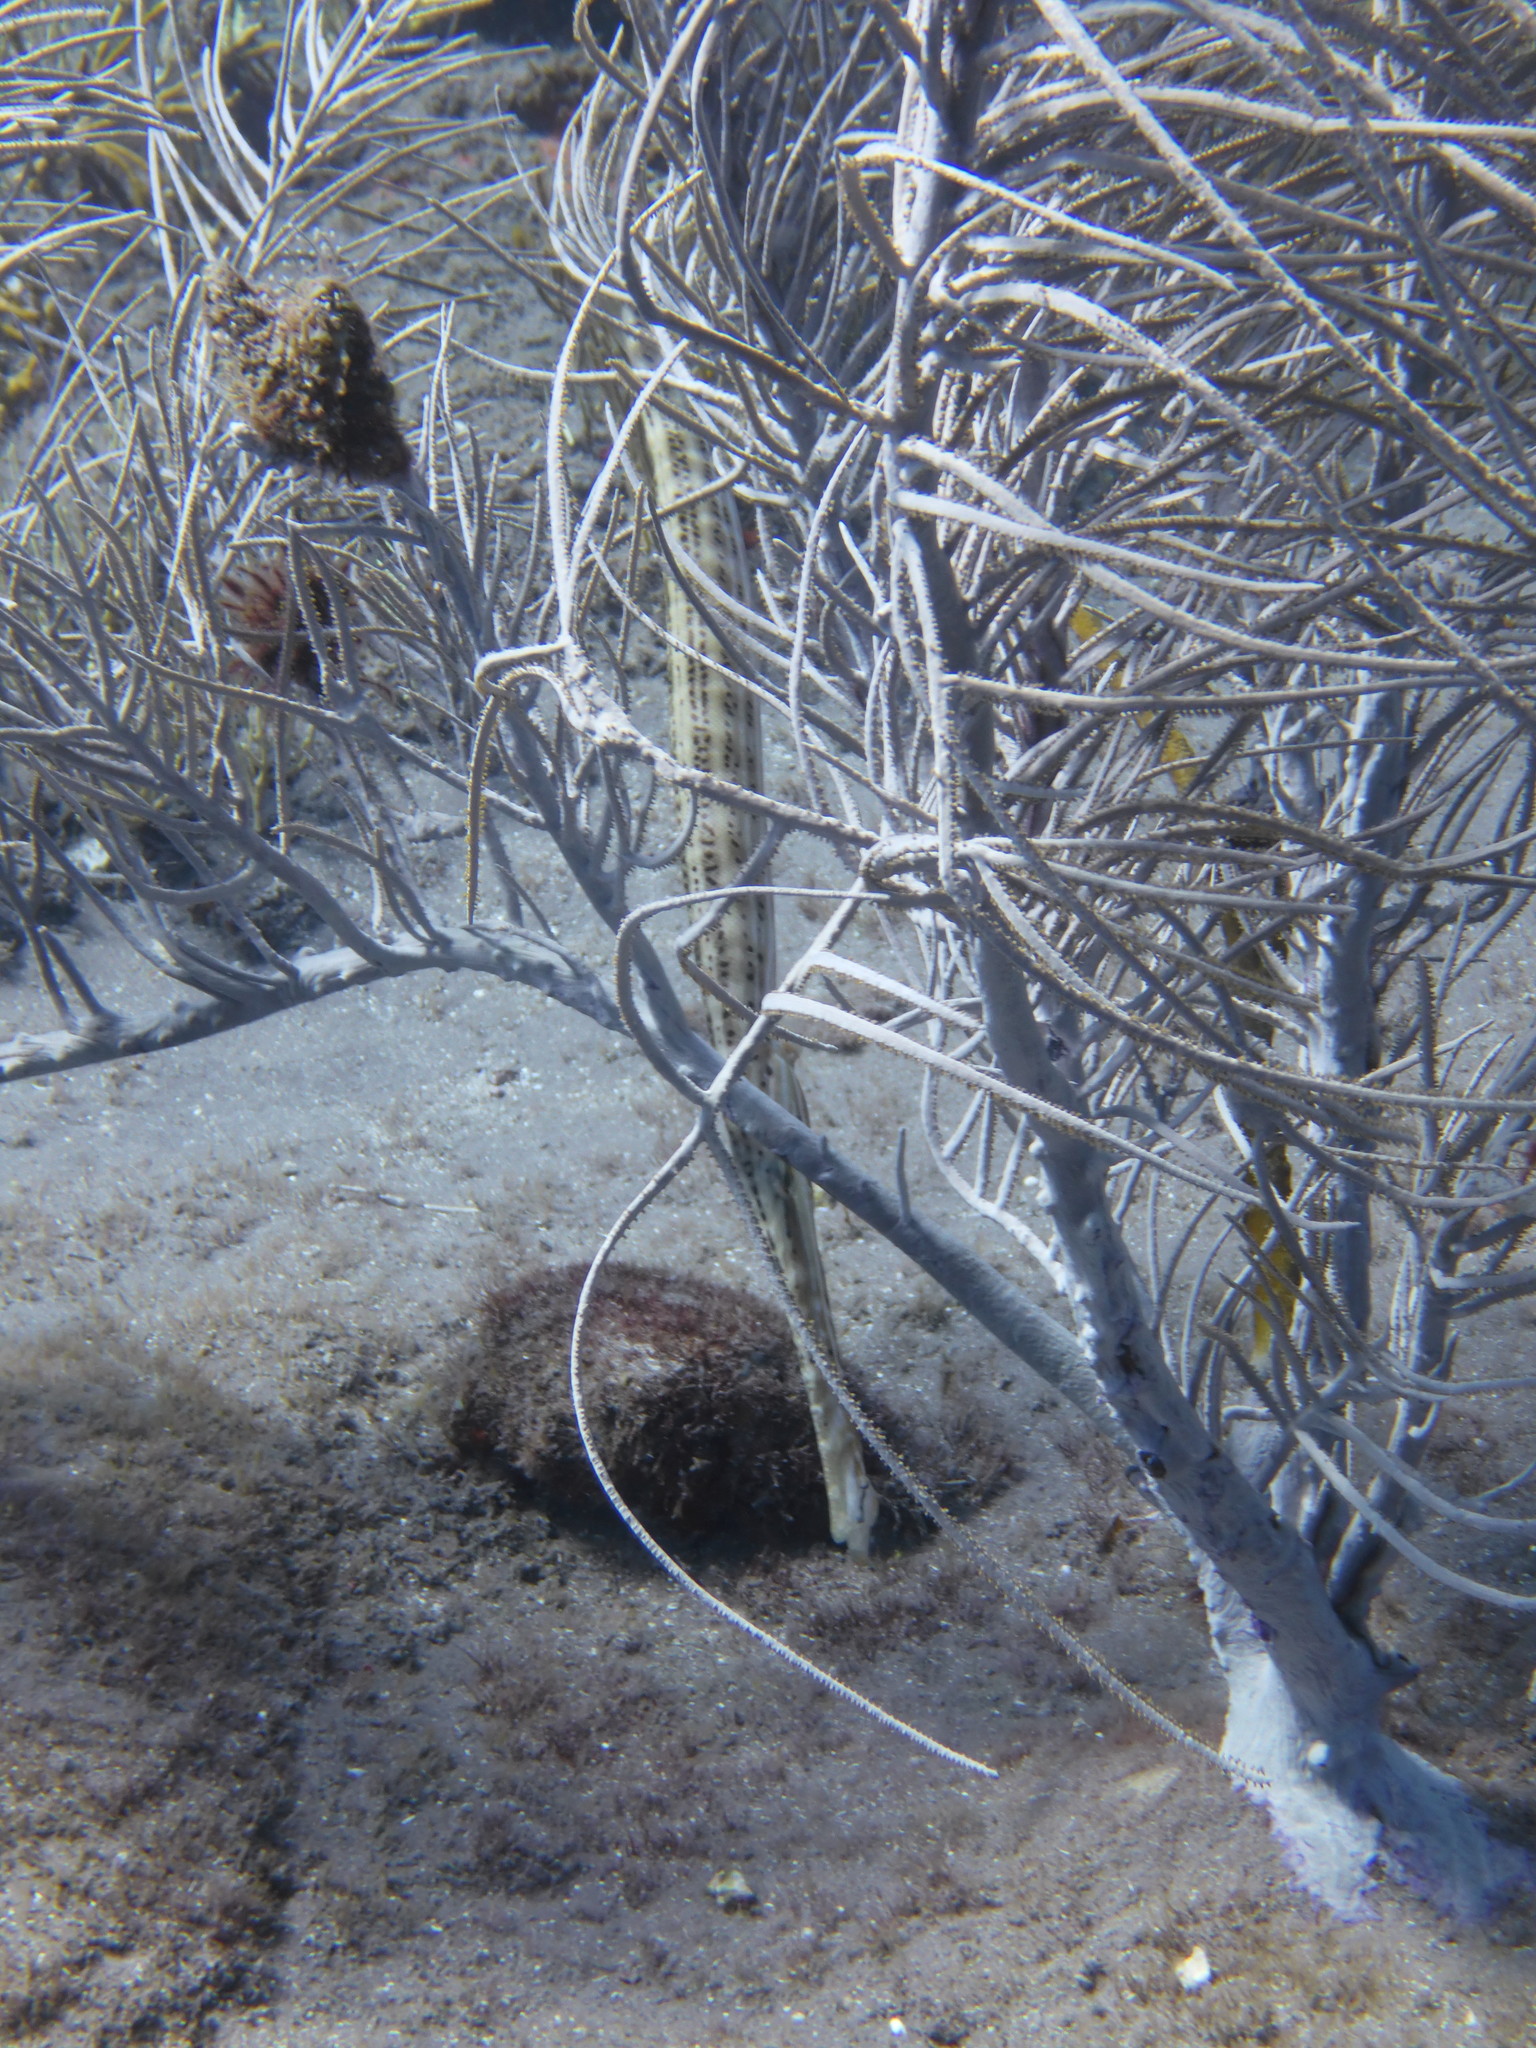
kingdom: Animalia
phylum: Chordata
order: Syngnathiformes
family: Aulostomidae
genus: Aulostomus
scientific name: Aulostomus maculatus
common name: West atlantic trumpetfish
